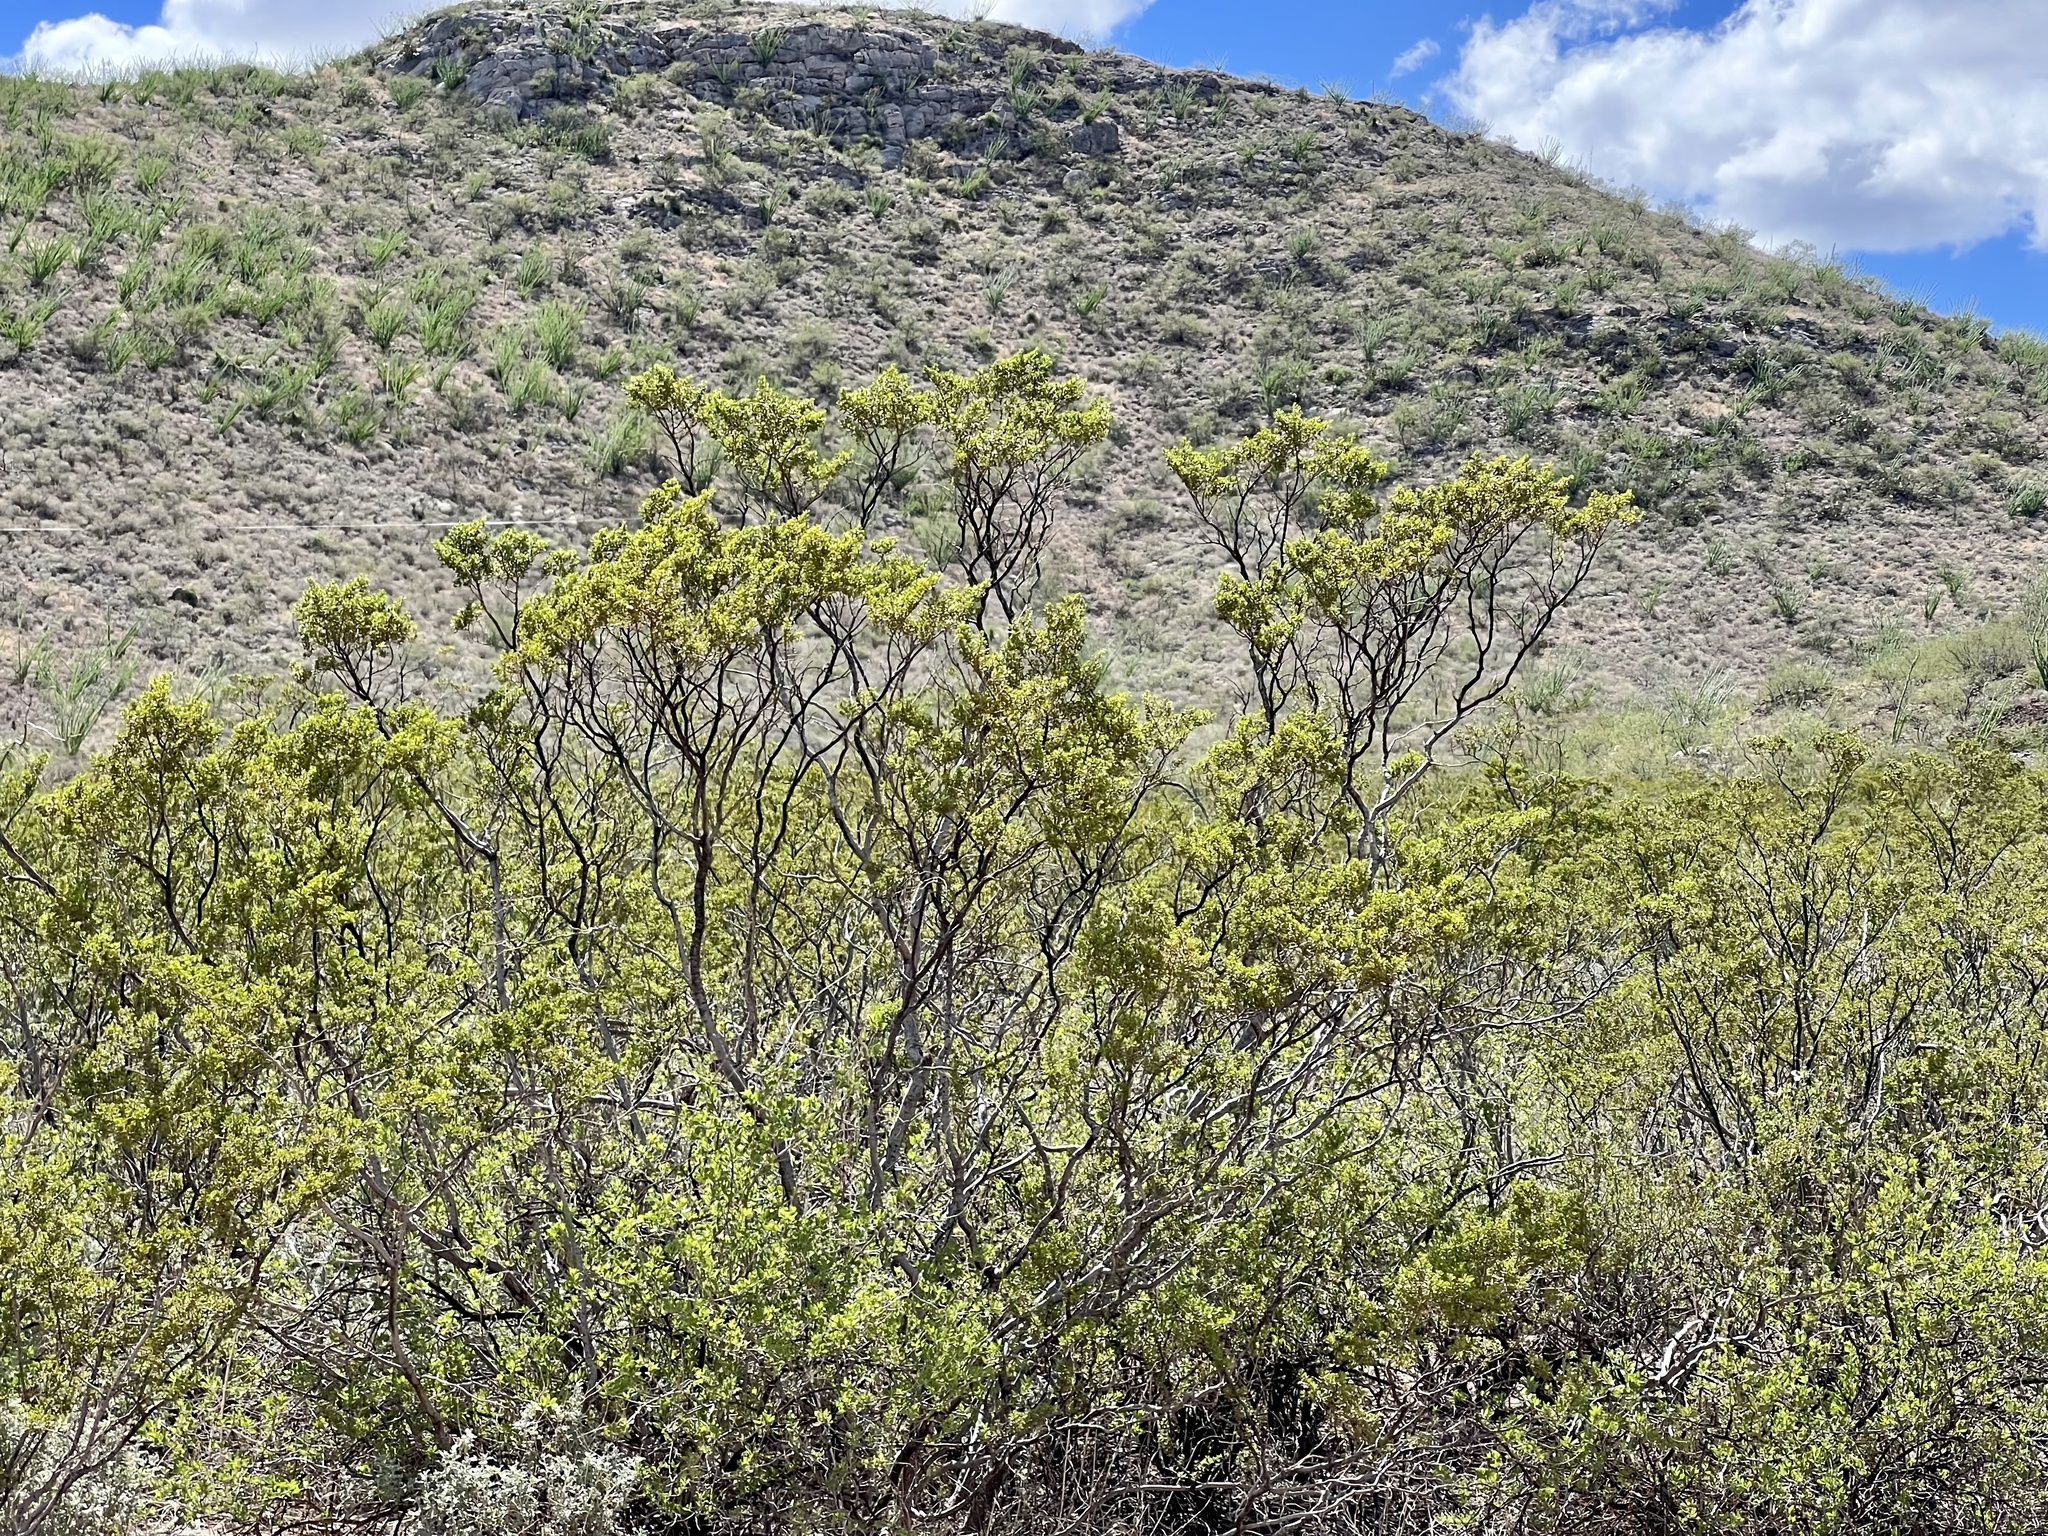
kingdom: Plantae
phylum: Tracheophyta
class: Magnoliopsida
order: Zygophyllales
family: Zygophyllaceae
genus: Larrea
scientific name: Larrea tridentata
